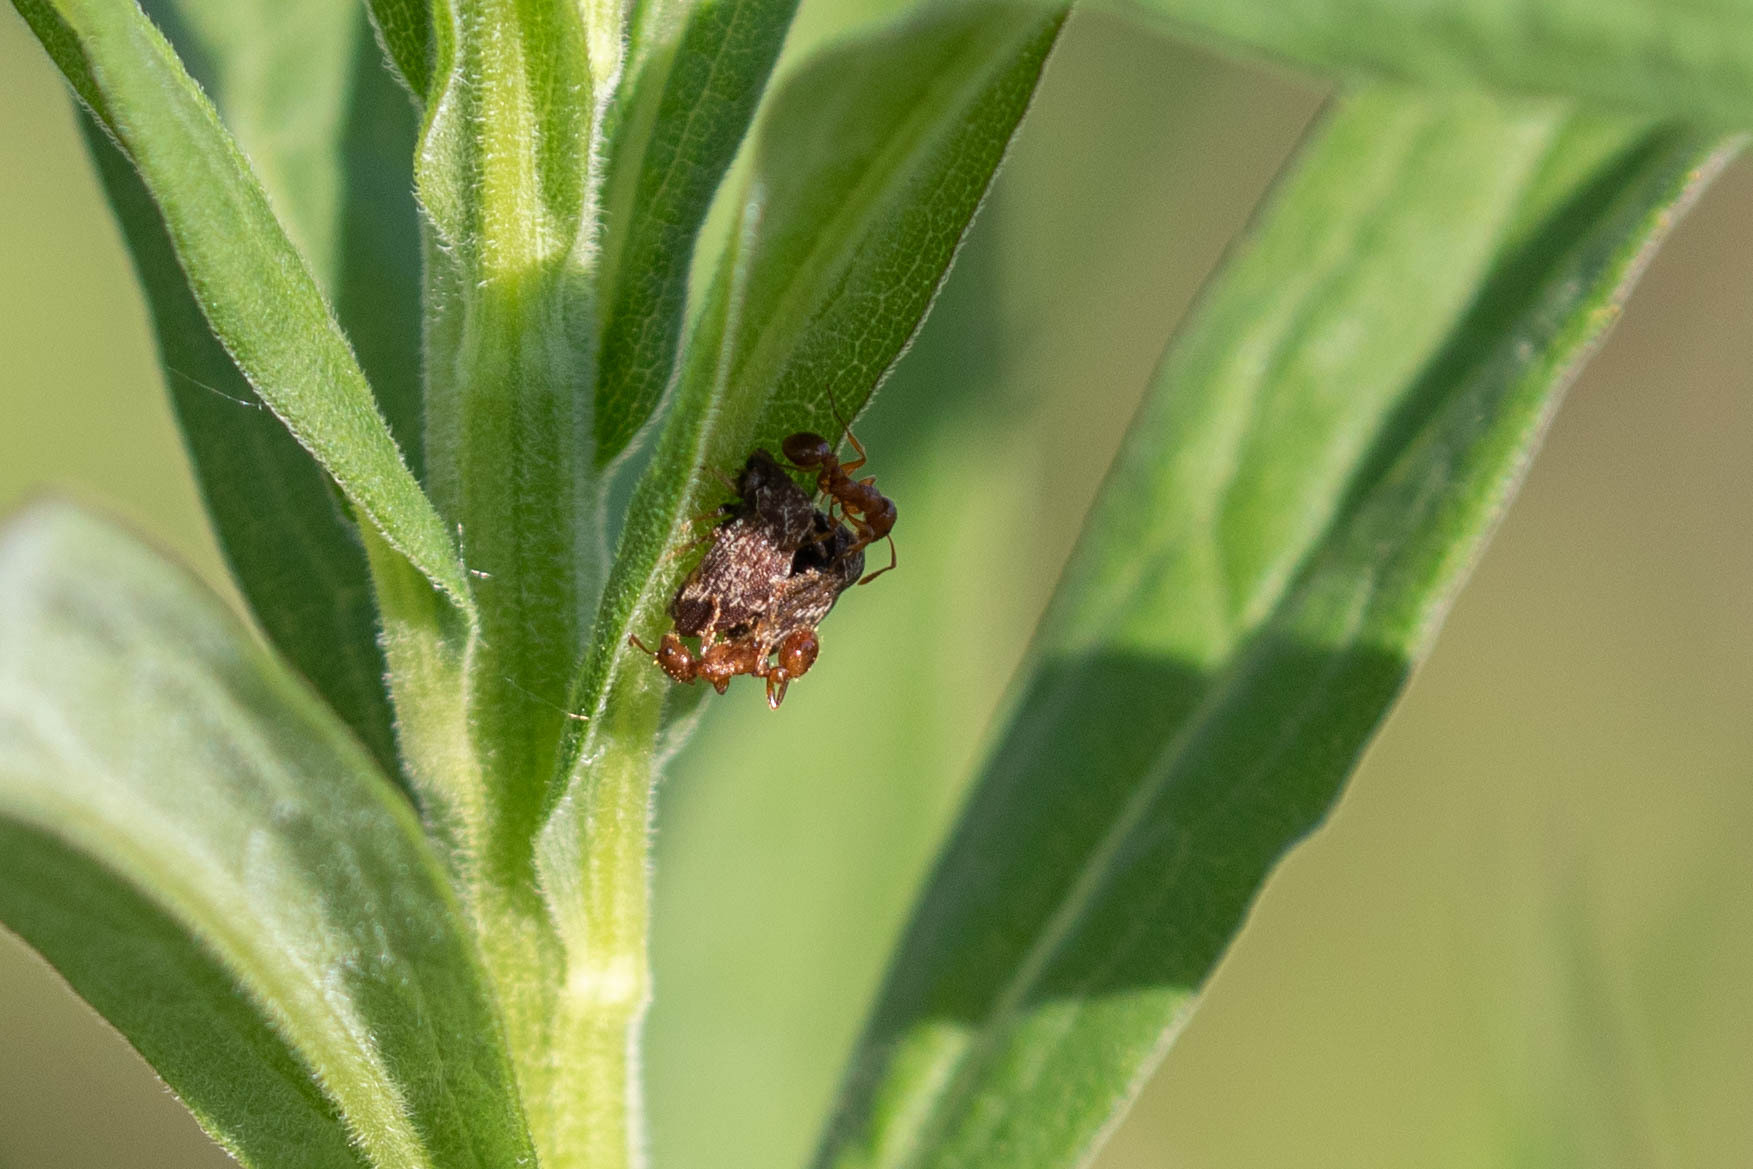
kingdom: Animalia
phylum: Arthropoda
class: Insecta
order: Hemiptera
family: Membracidae
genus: Publilia
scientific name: Publilia concava
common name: Aster treehopper
